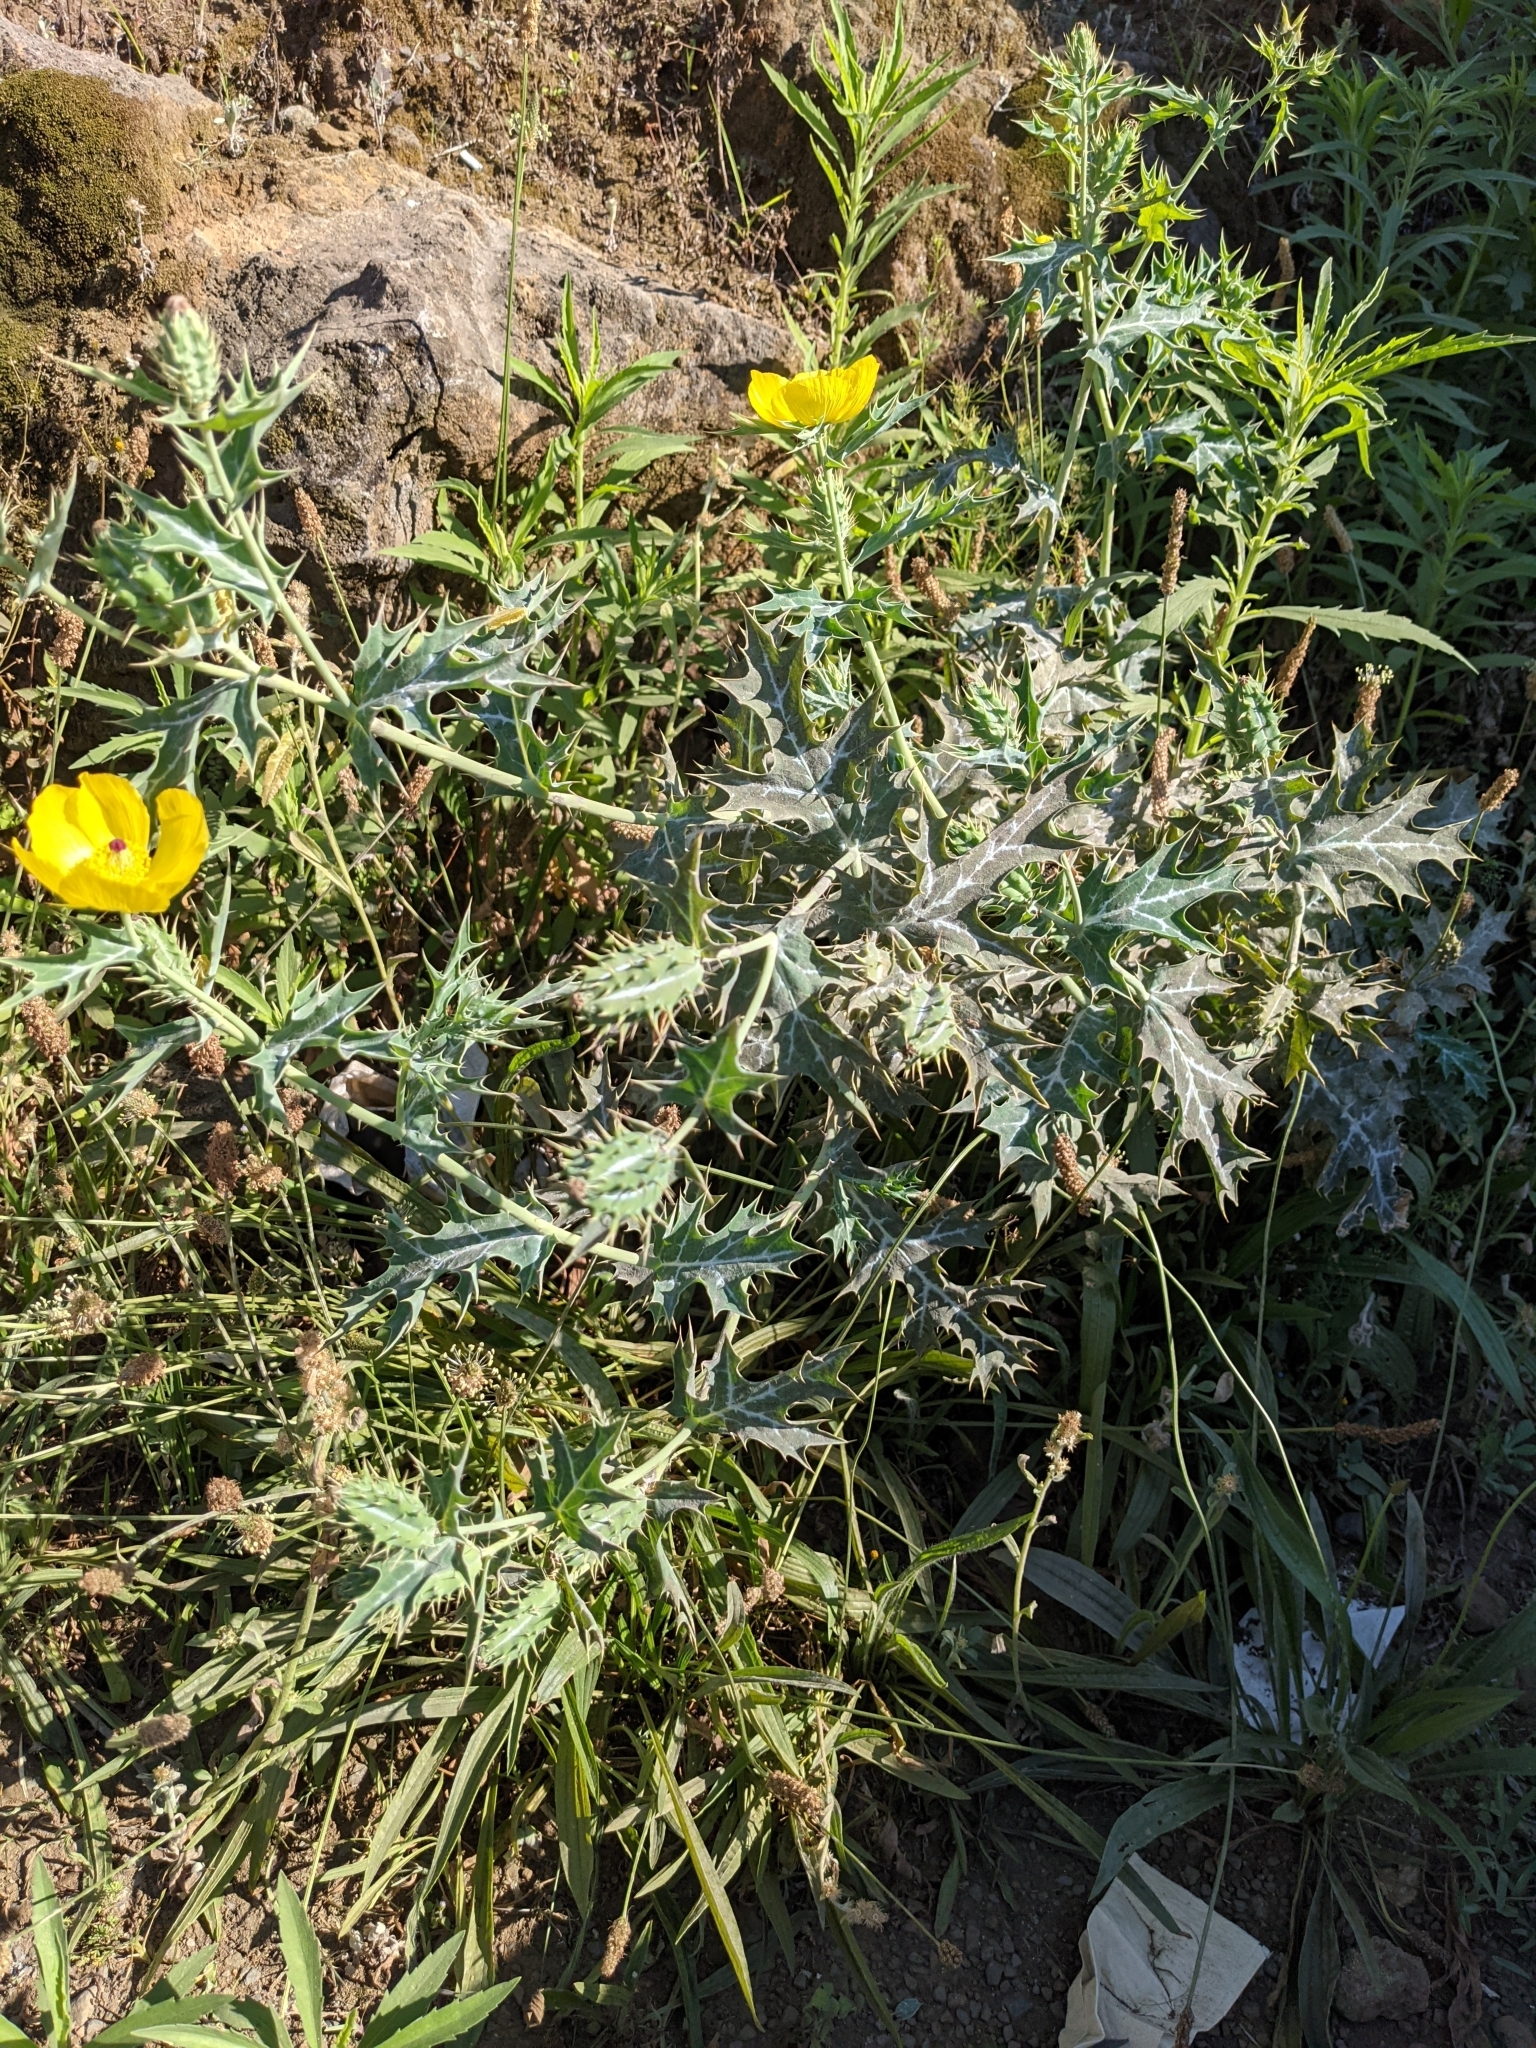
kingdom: Plantae
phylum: Tracheophyta
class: Magnoliopsida
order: Ranunculales
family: Papaveraceae
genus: Argemone
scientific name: Argemone mexicana
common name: Mexican poppy
